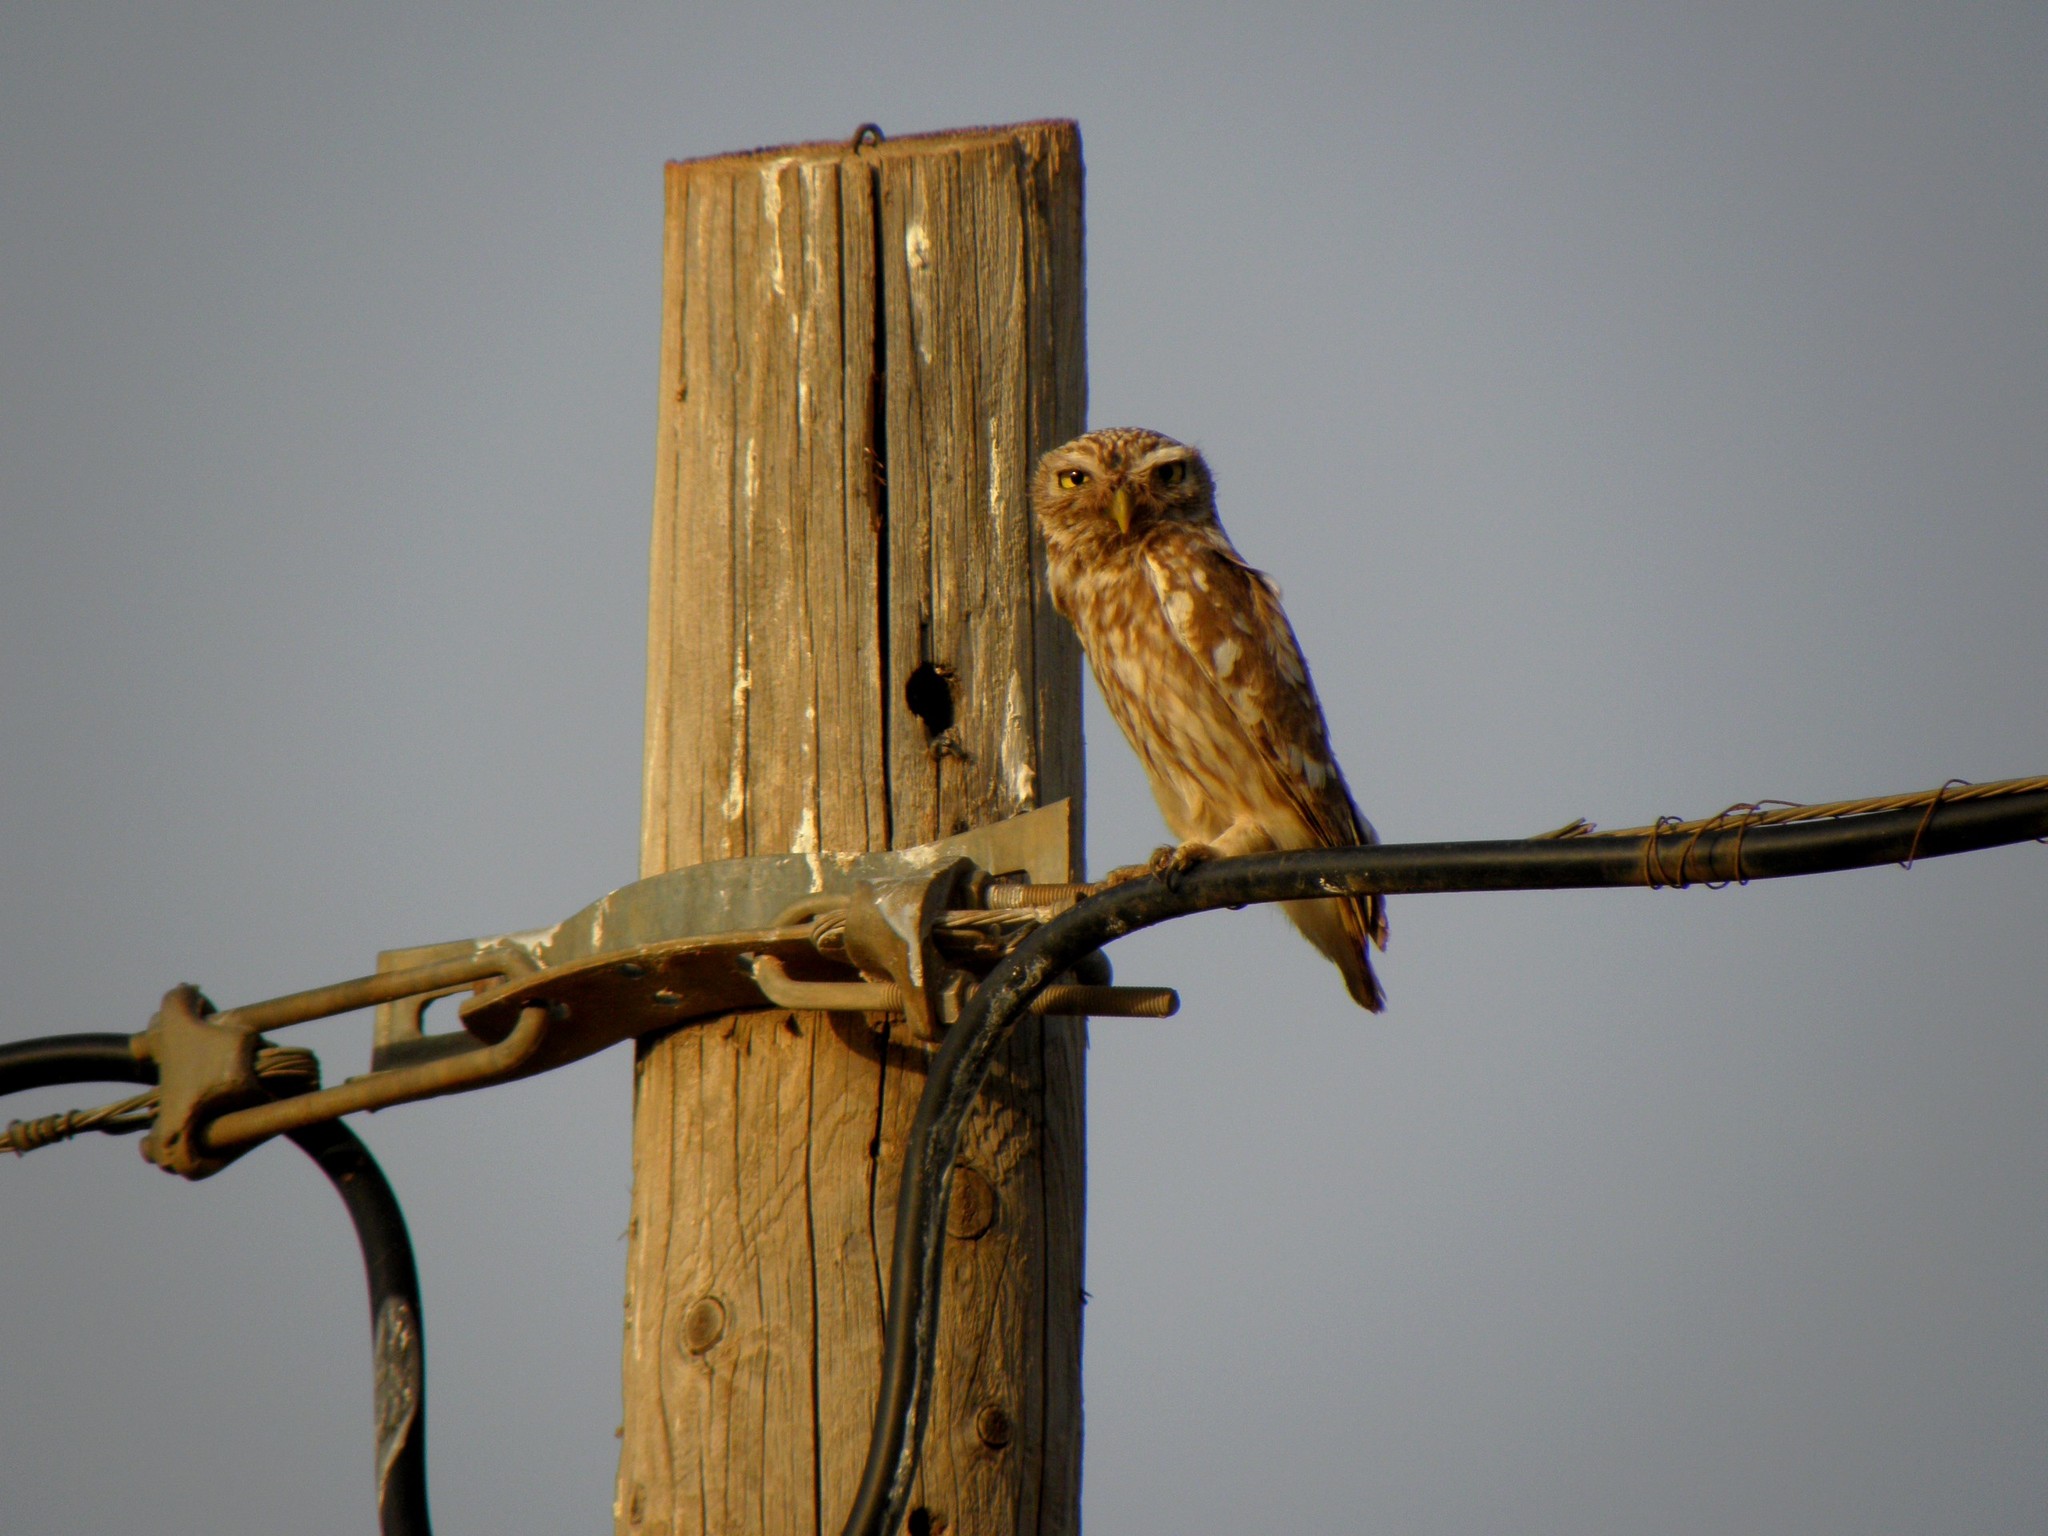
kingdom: Animalia
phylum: Chordata
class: Aves
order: Strigiformes
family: Strigidae
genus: Athene
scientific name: Athene noctua
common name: Little owl
